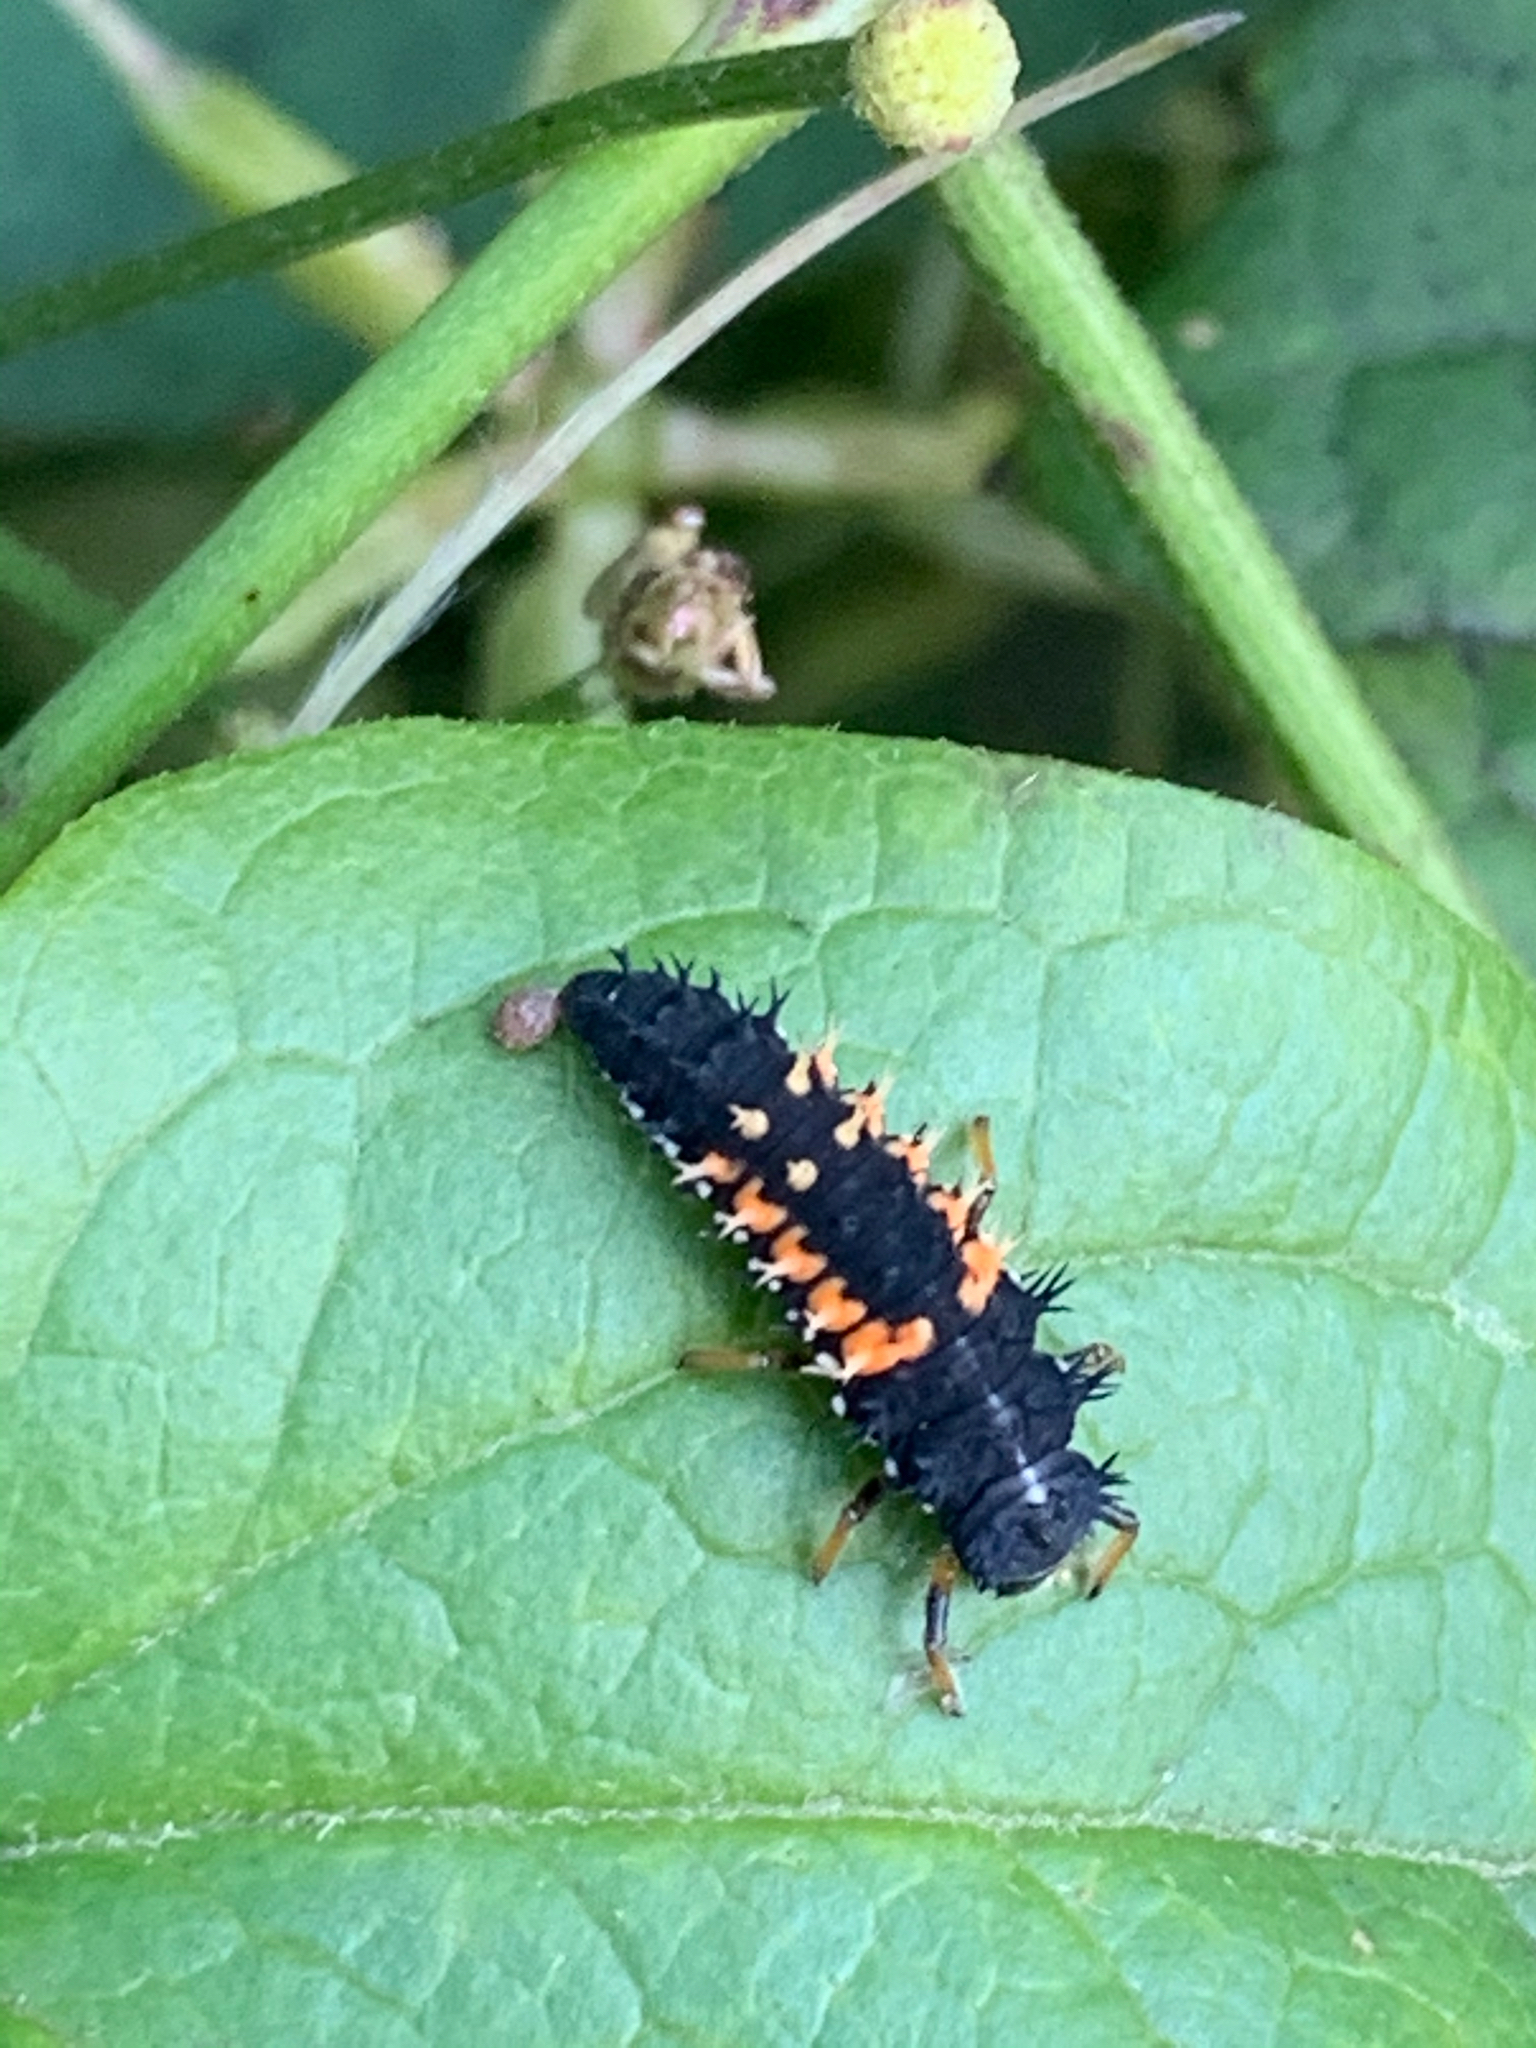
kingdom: Animalia
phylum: Arthropoda
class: Insecta
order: Coleoptera
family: Coccinellidae
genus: Harmonia
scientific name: Harmonia axyridis
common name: Harlequin ladybird
